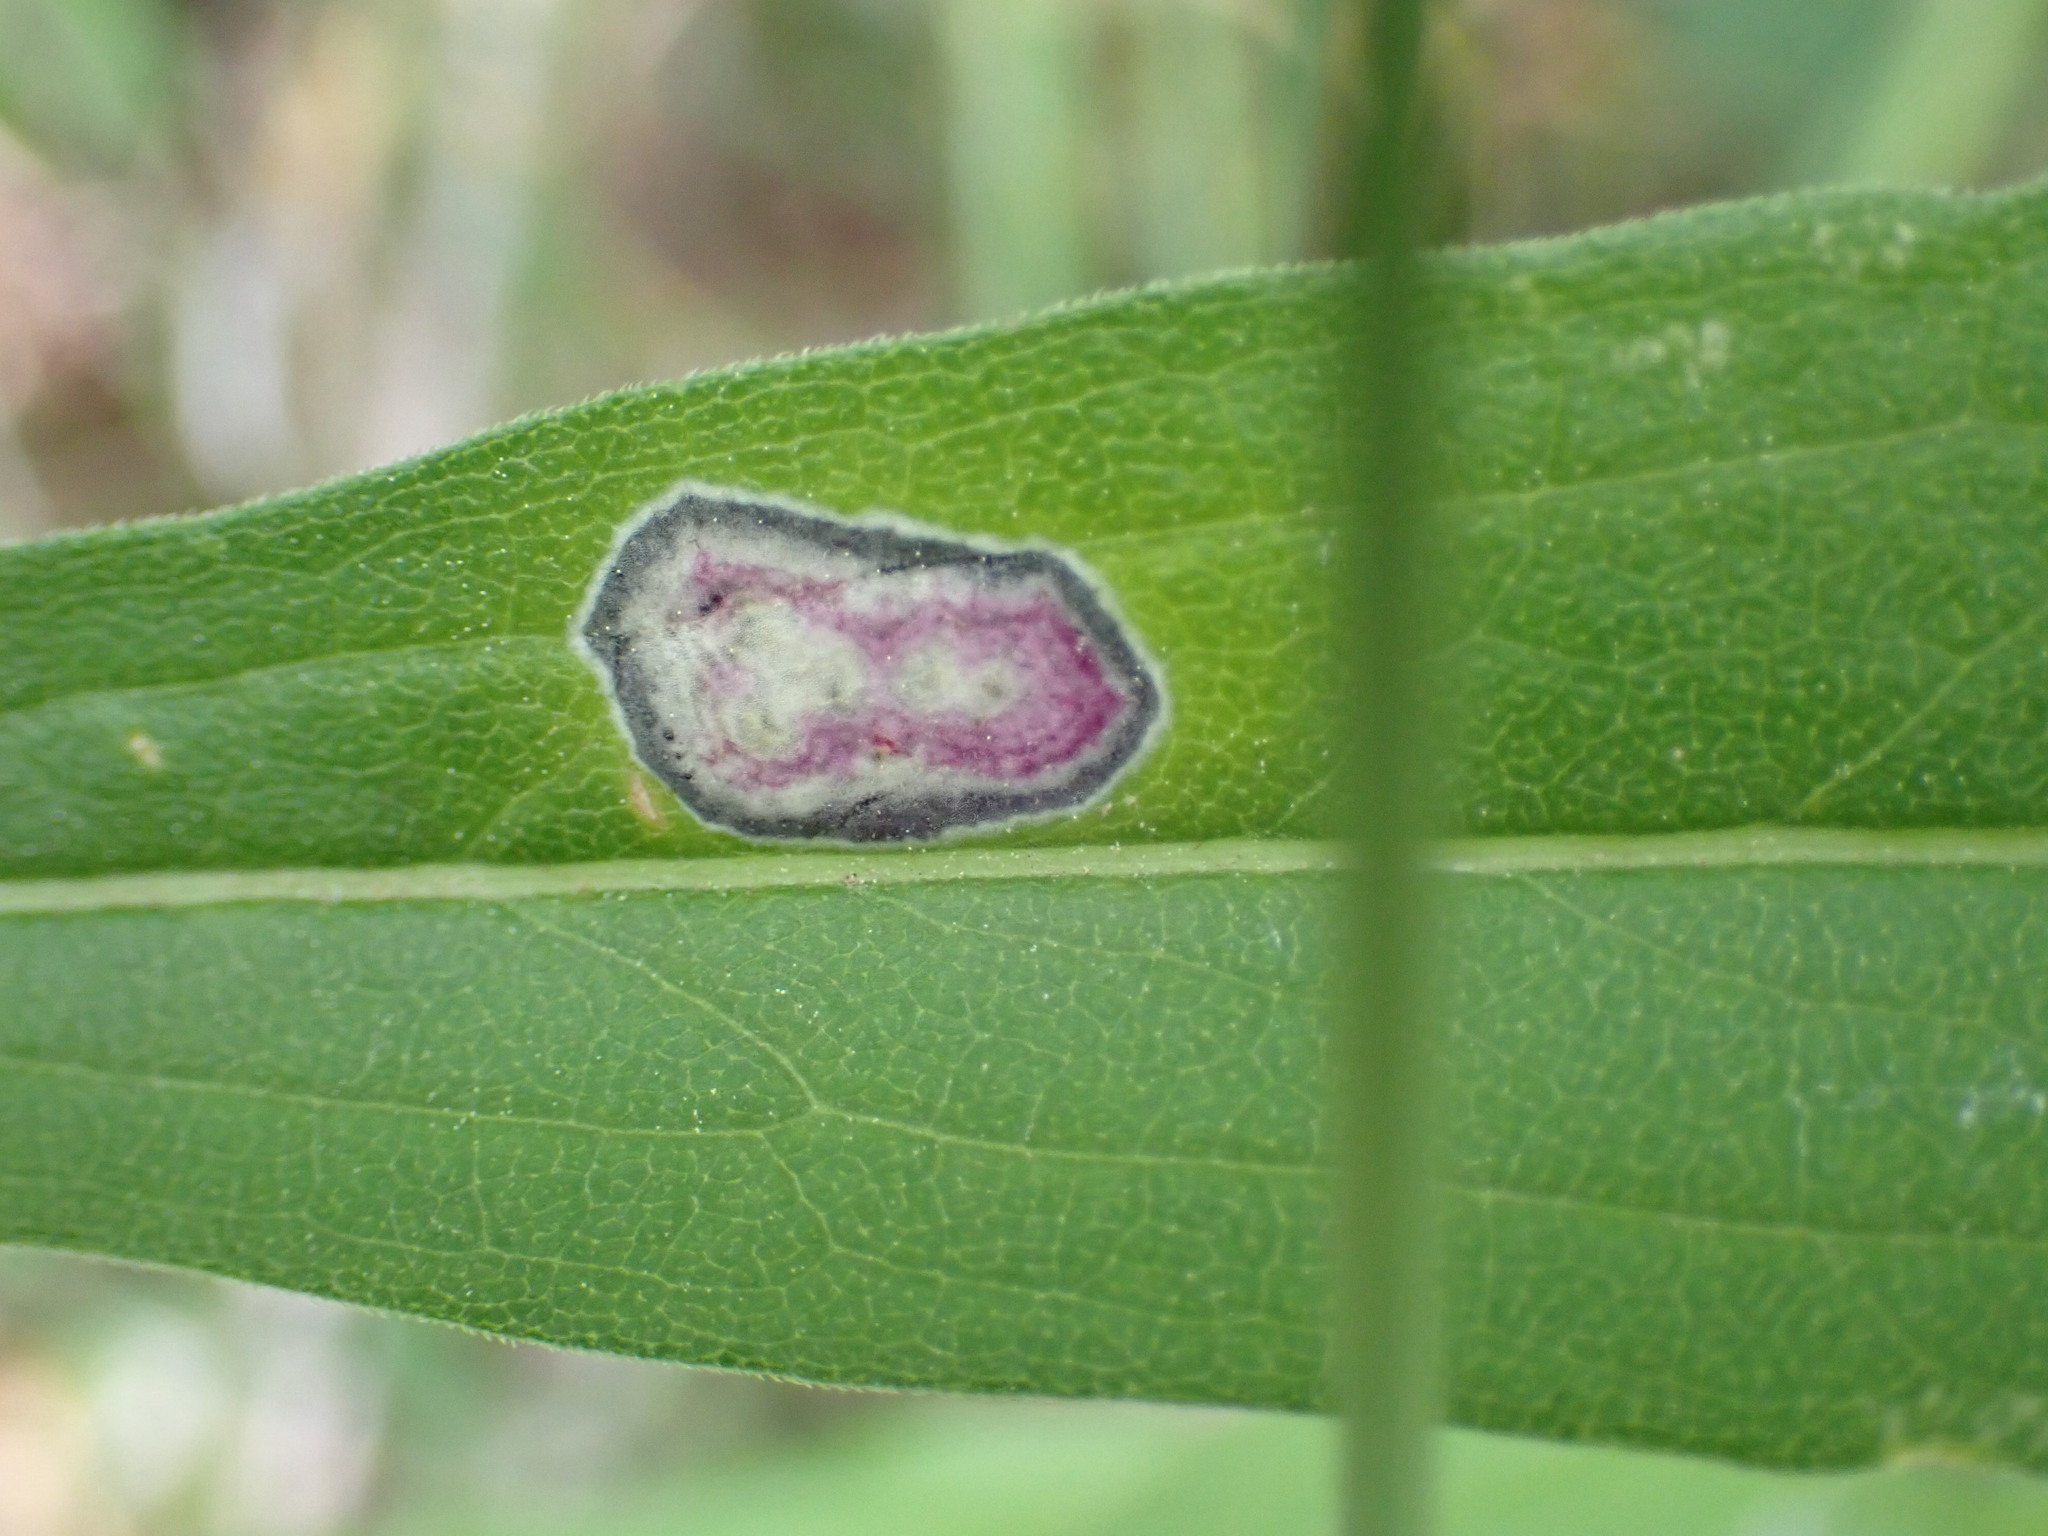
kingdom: Animalia
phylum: Arthropoda
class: Insecta
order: Diptera
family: Cecidomyiidae
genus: Asteromyia
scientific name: Asteromyia carbonifera
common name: Carbonifera goldenrod gall midge
